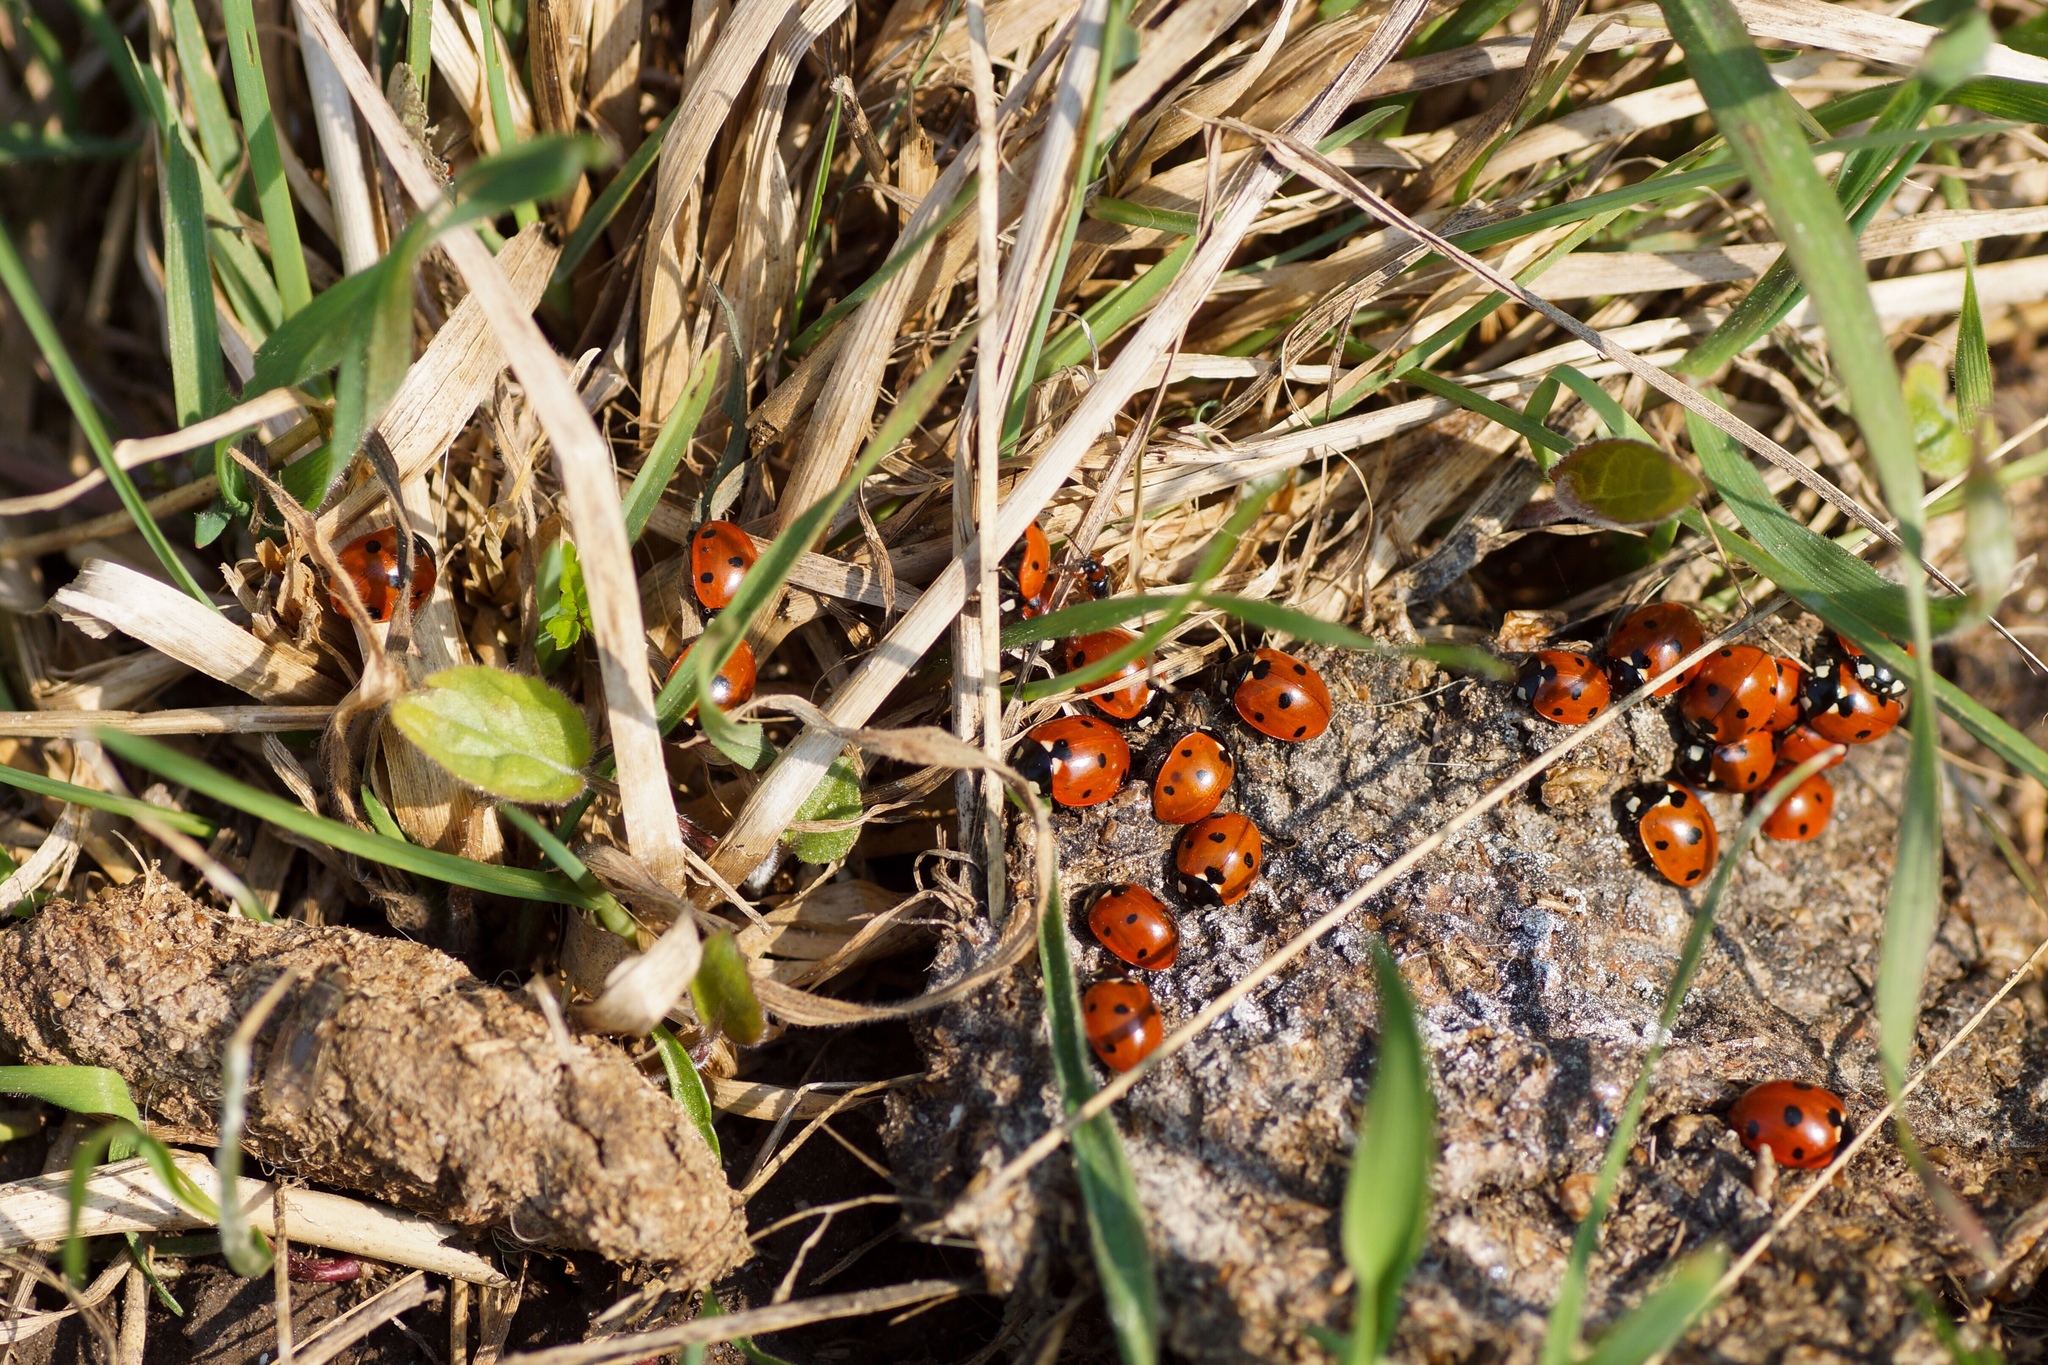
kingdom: Animalia
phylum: Arthropoda
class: Insecta
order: Coleoptera
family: Coccinellidae
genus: Coccinella
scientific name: Coccinella septempunctata
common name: Sevenspotted lady beetle
